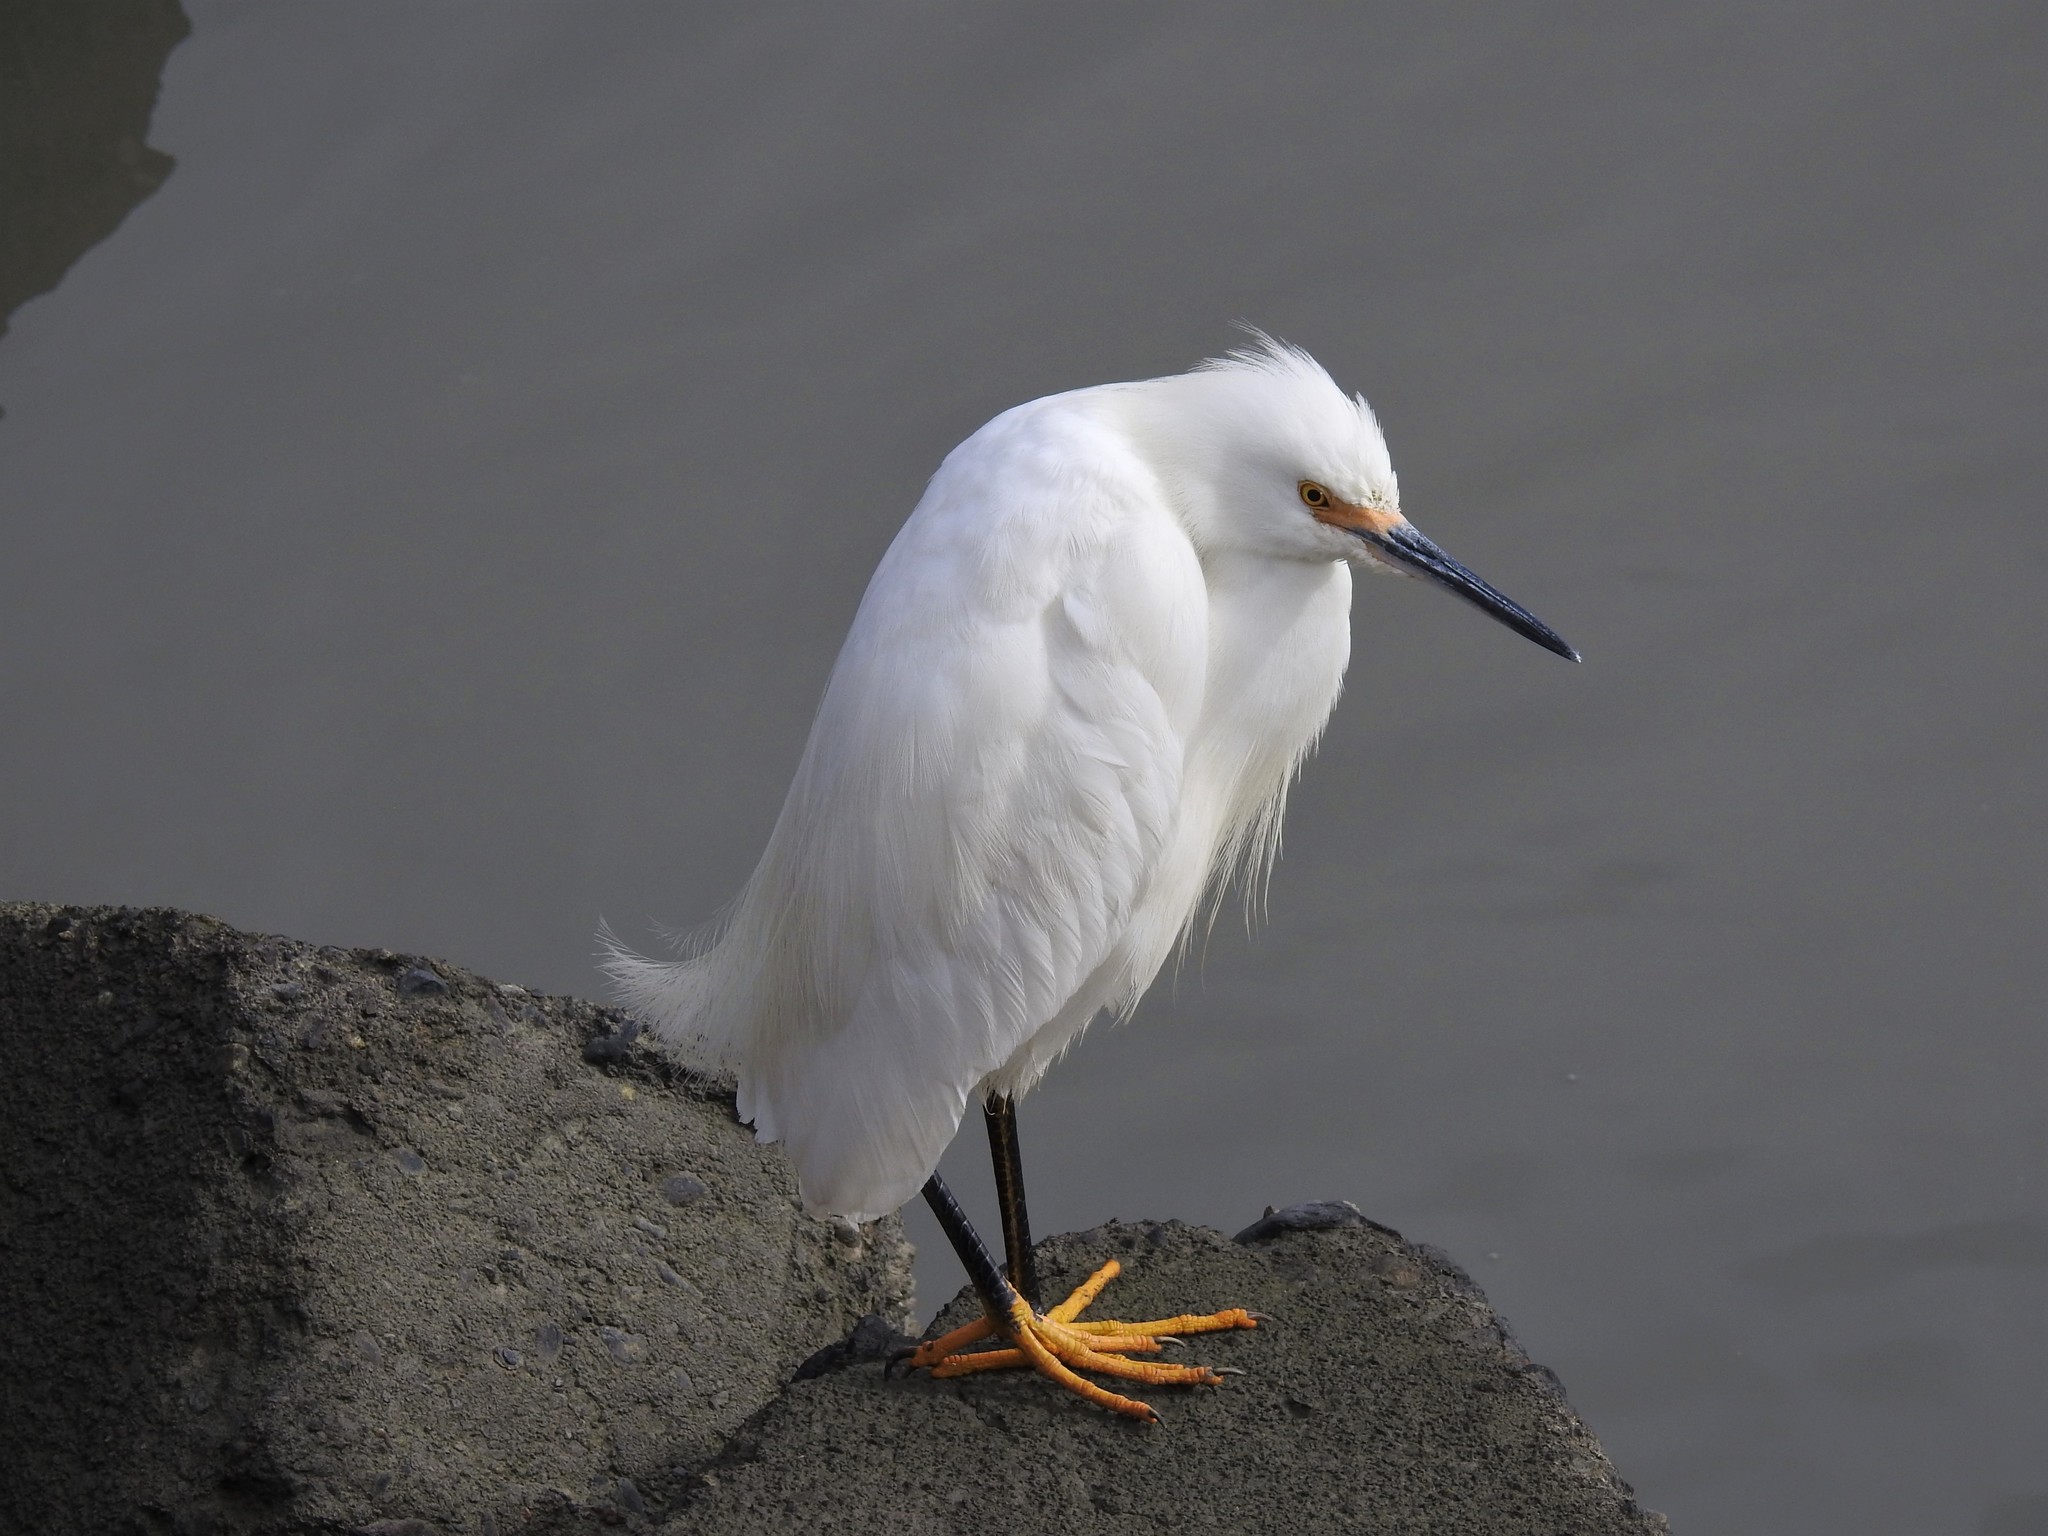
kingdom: Animalia
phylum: Chordata
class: Aves
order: Pelecaniformes
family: Ardeidae
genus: Egretta
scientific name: Egretta thula
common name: Snowy egret
